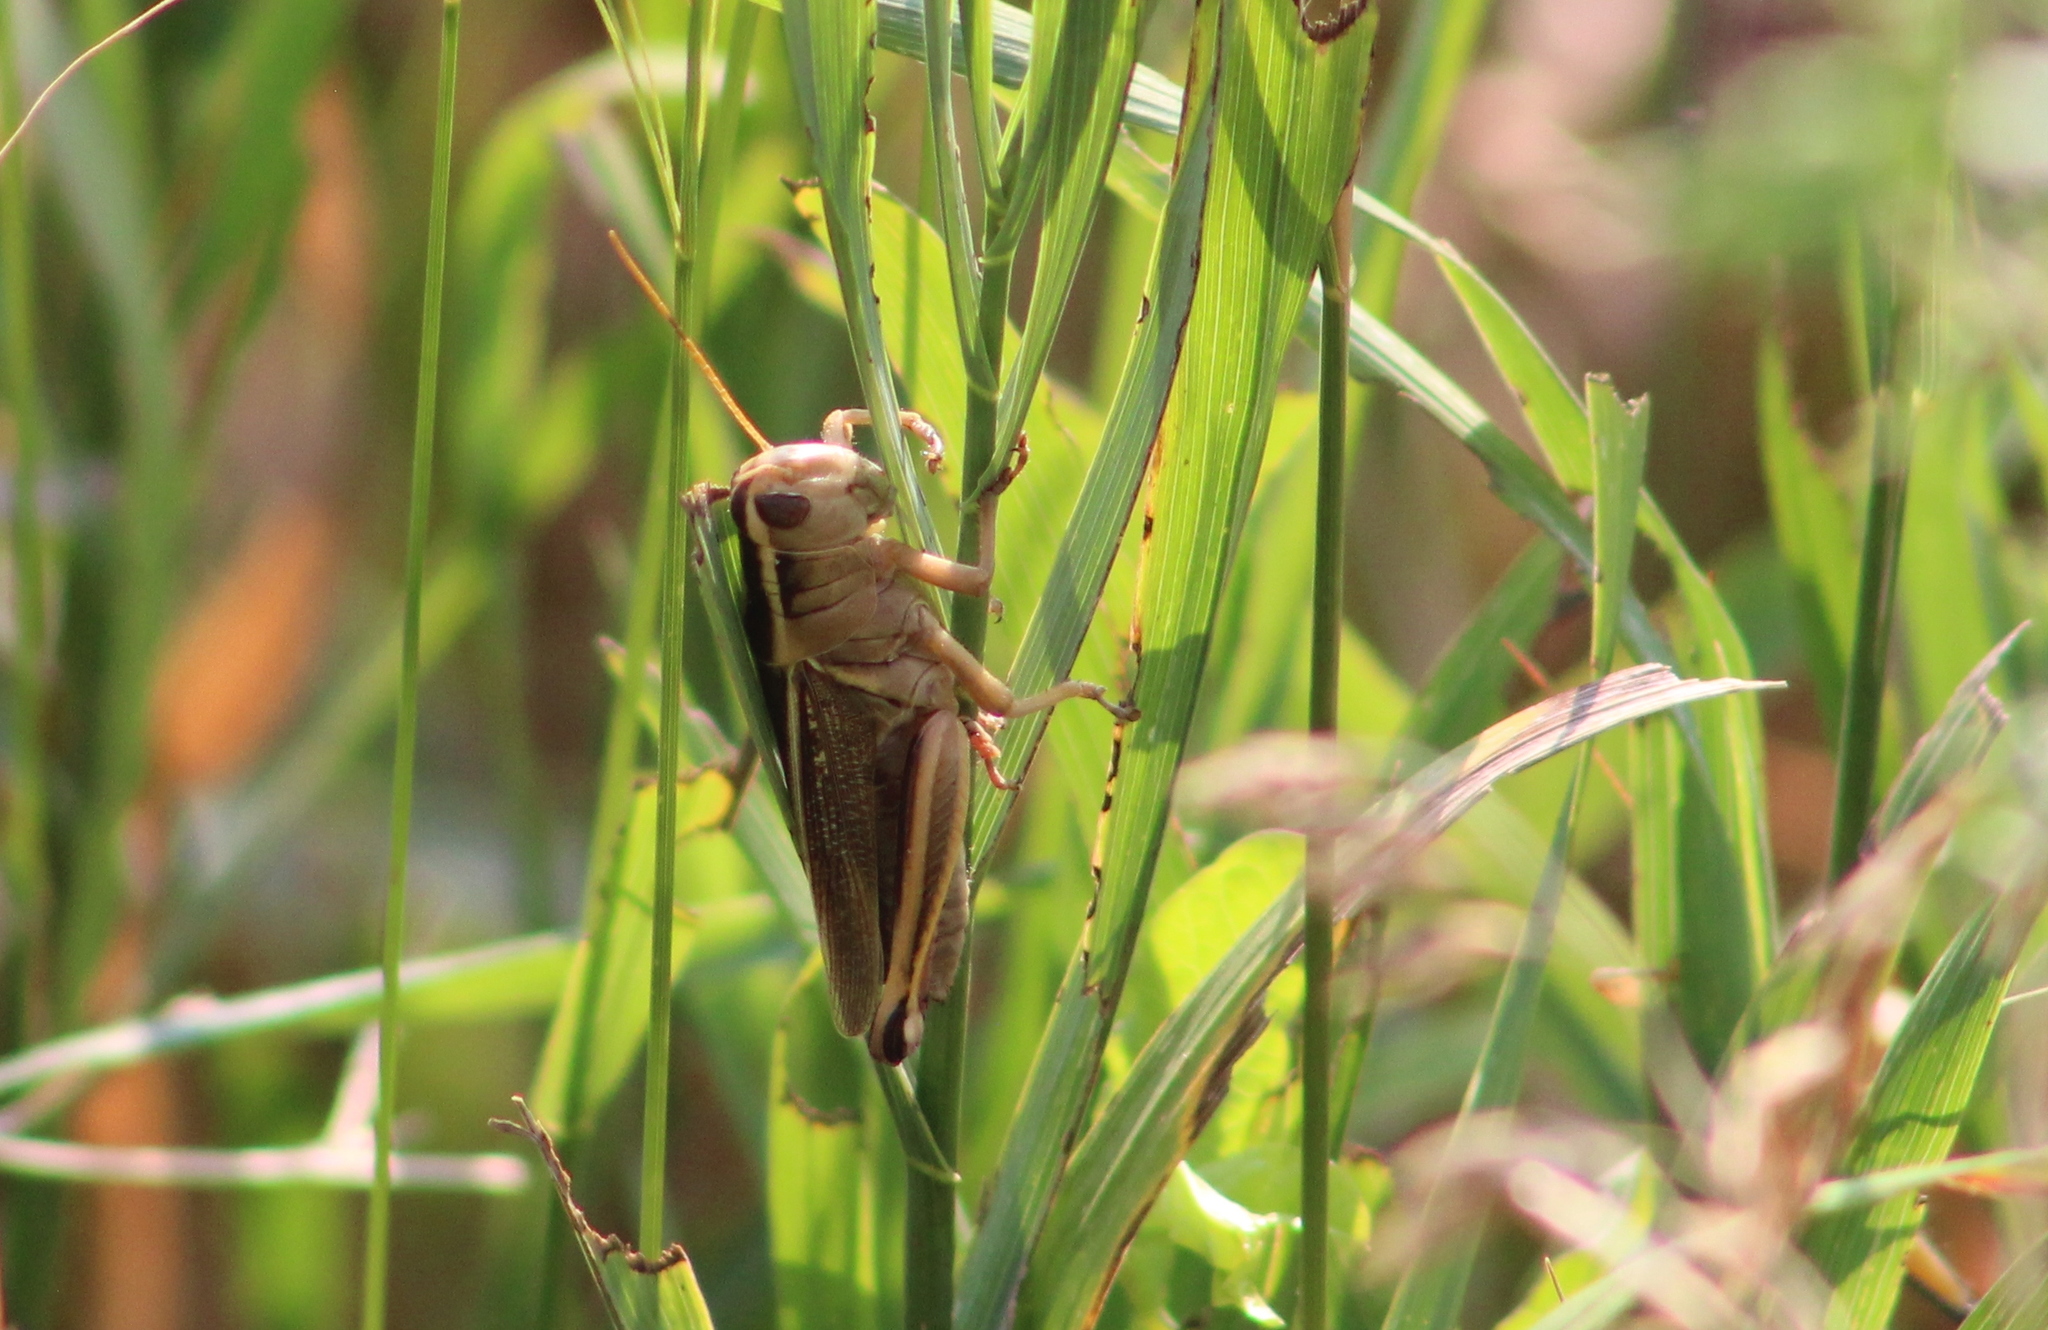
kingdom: Animalia
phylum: Arthropoda
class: Insecta
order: Orthoptera
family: Acrididae
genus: Melanoplus
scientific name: Melanoplus bivittatus
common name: Two-striped grasshopper
